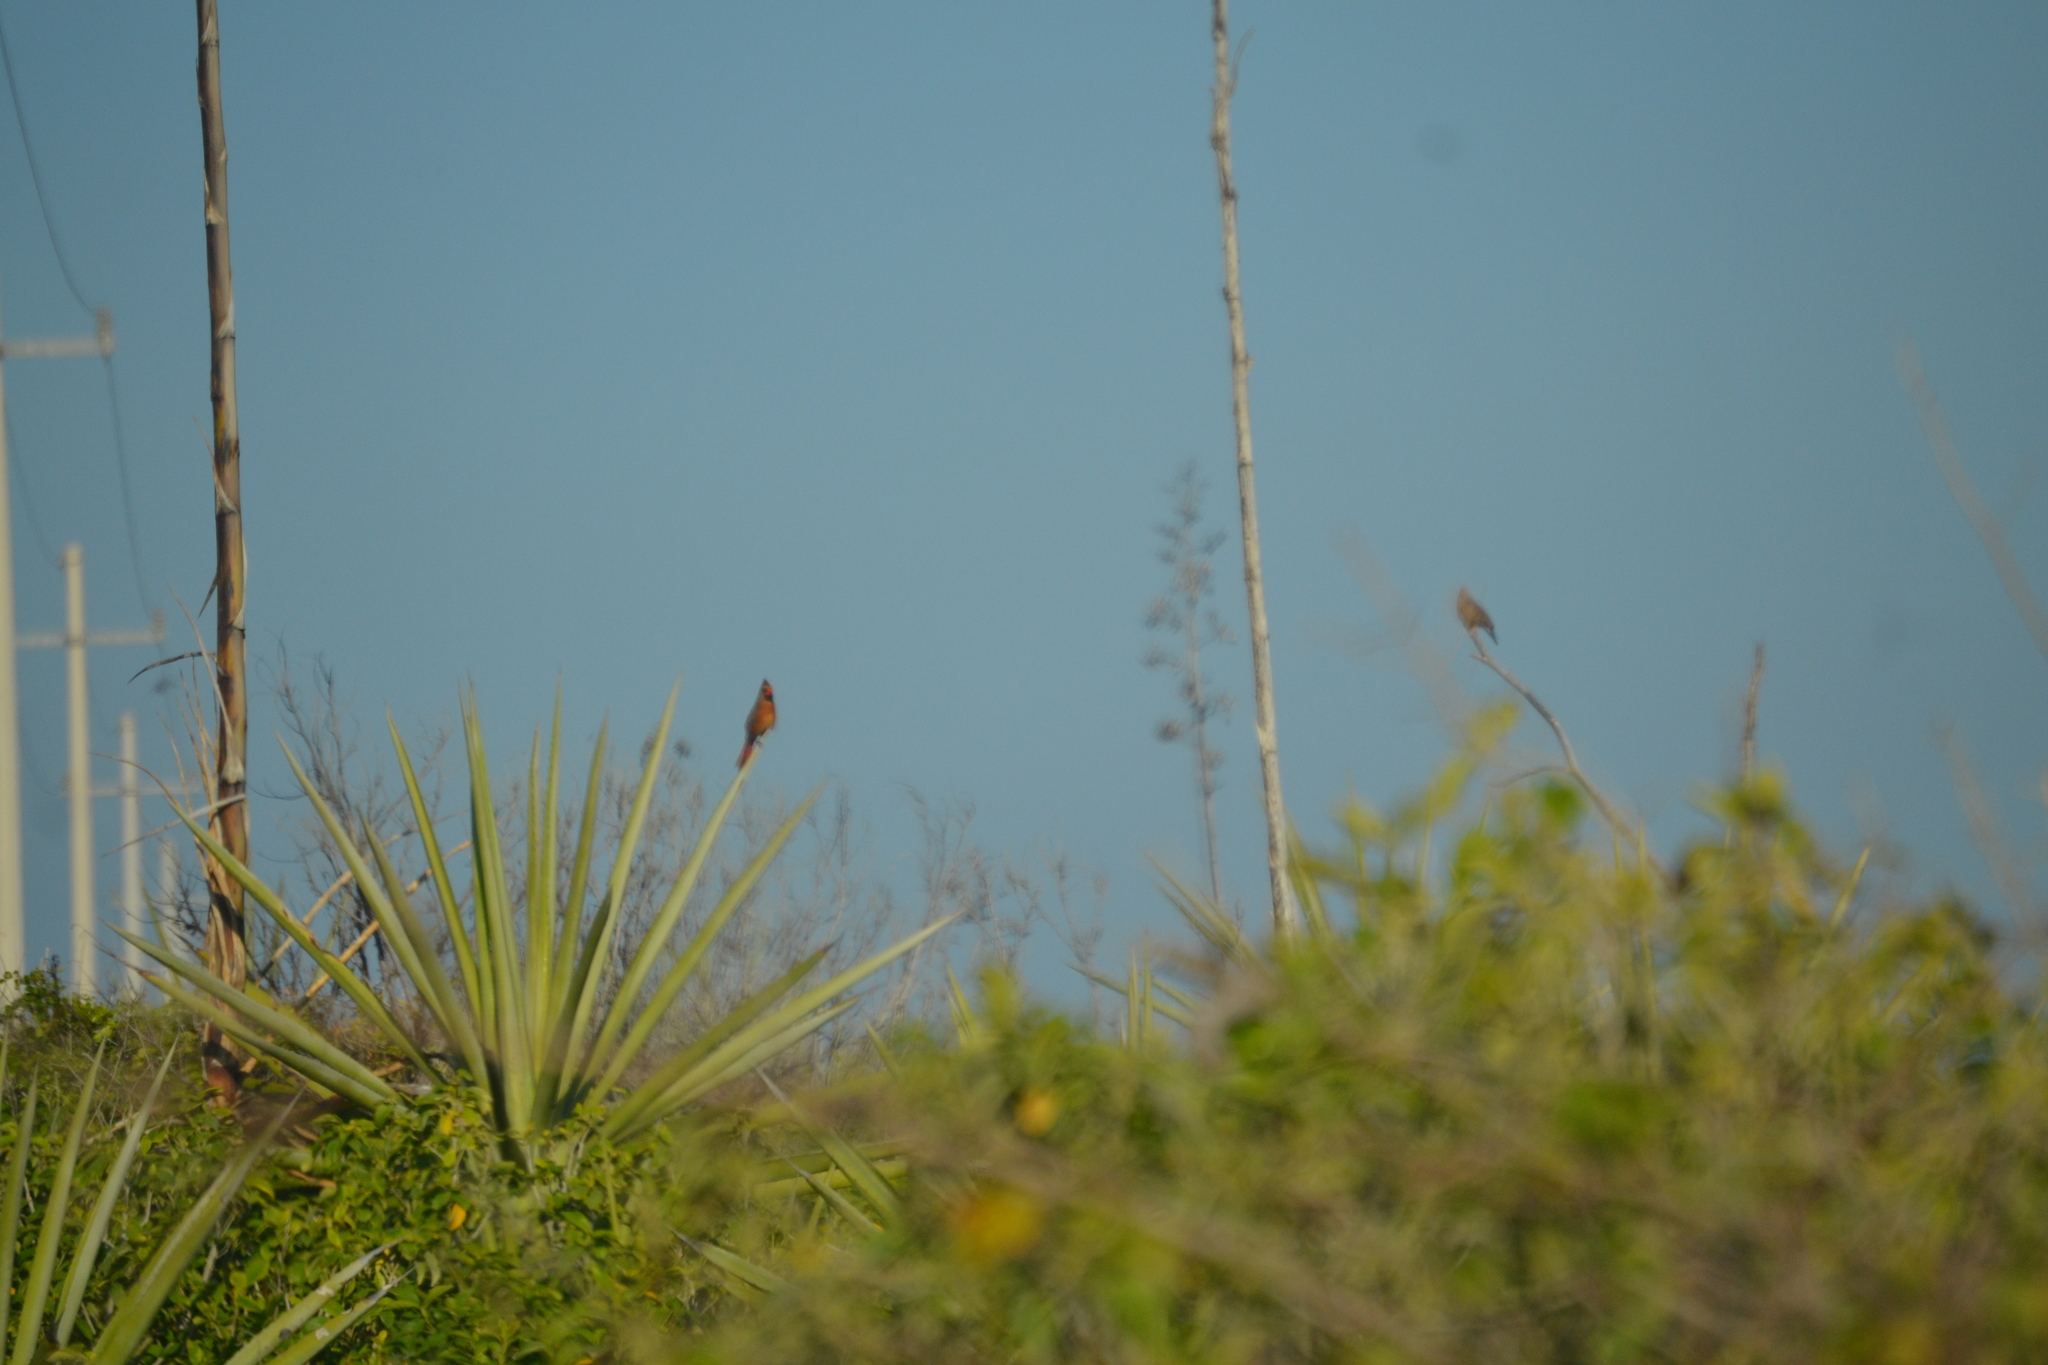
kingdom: Animalia
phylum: Chordata
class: Aves
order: Passeriformes
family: Cardinalidae
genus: Cardinalis
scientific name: Cardinalis cardinalis
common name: Northern cardinal
